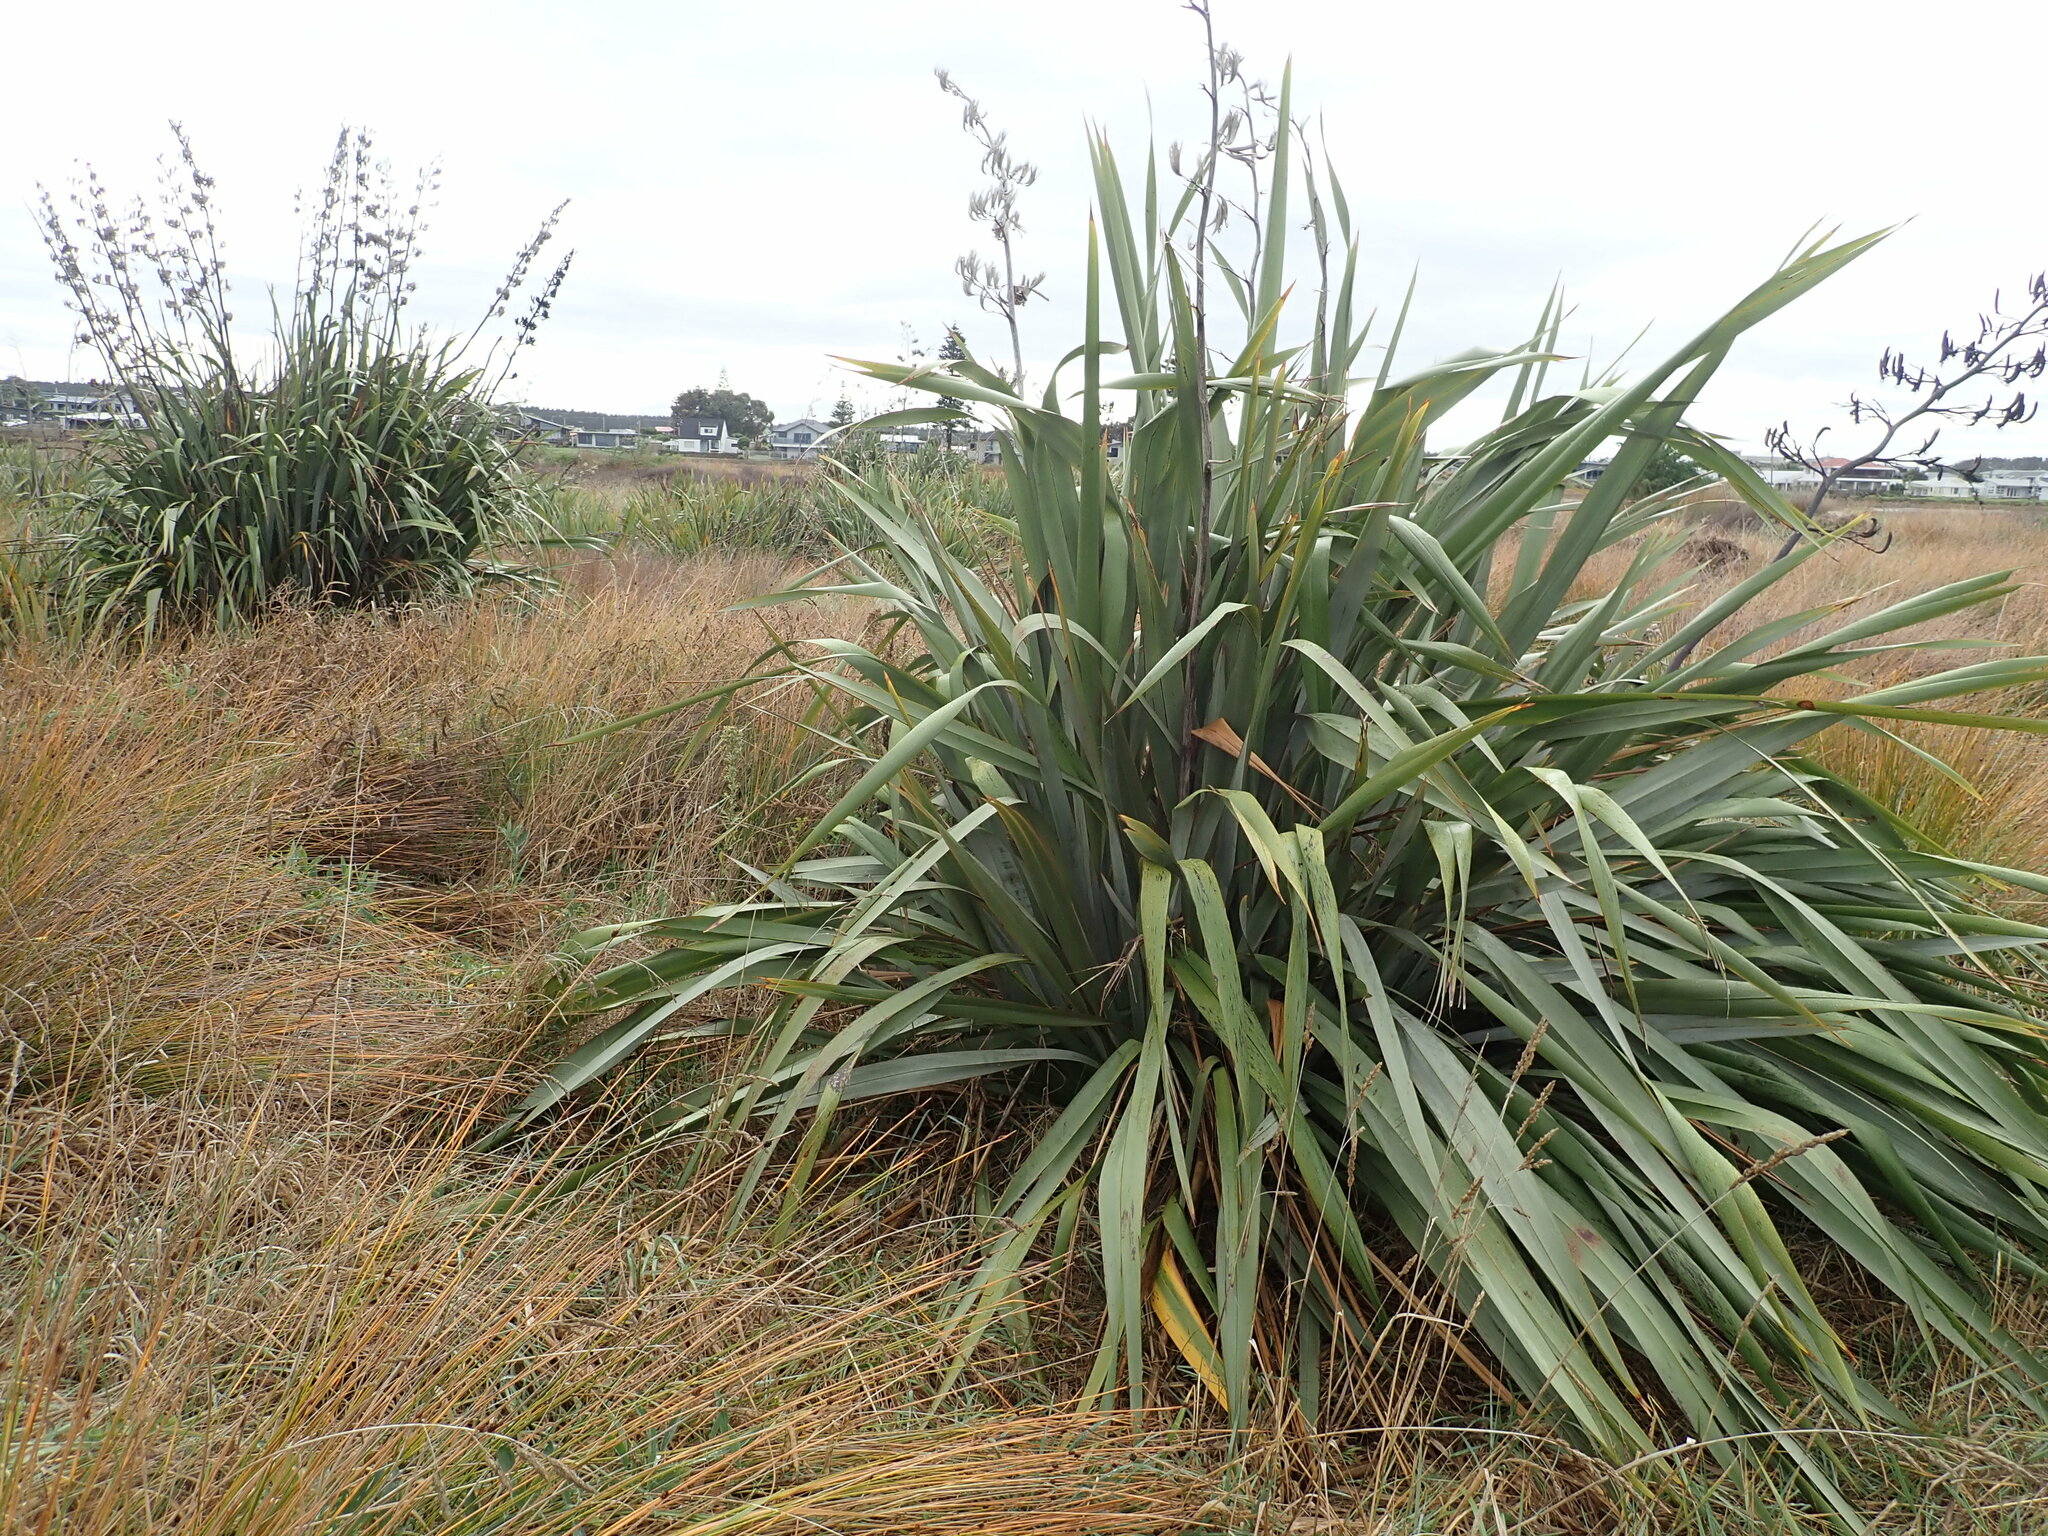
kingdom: Plantae
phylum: Tracheophyta
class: Liliopsida
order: Asparagales
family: Asphodelaceae
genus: Phormium
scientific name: Phormium tenax
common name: New zealand flax
